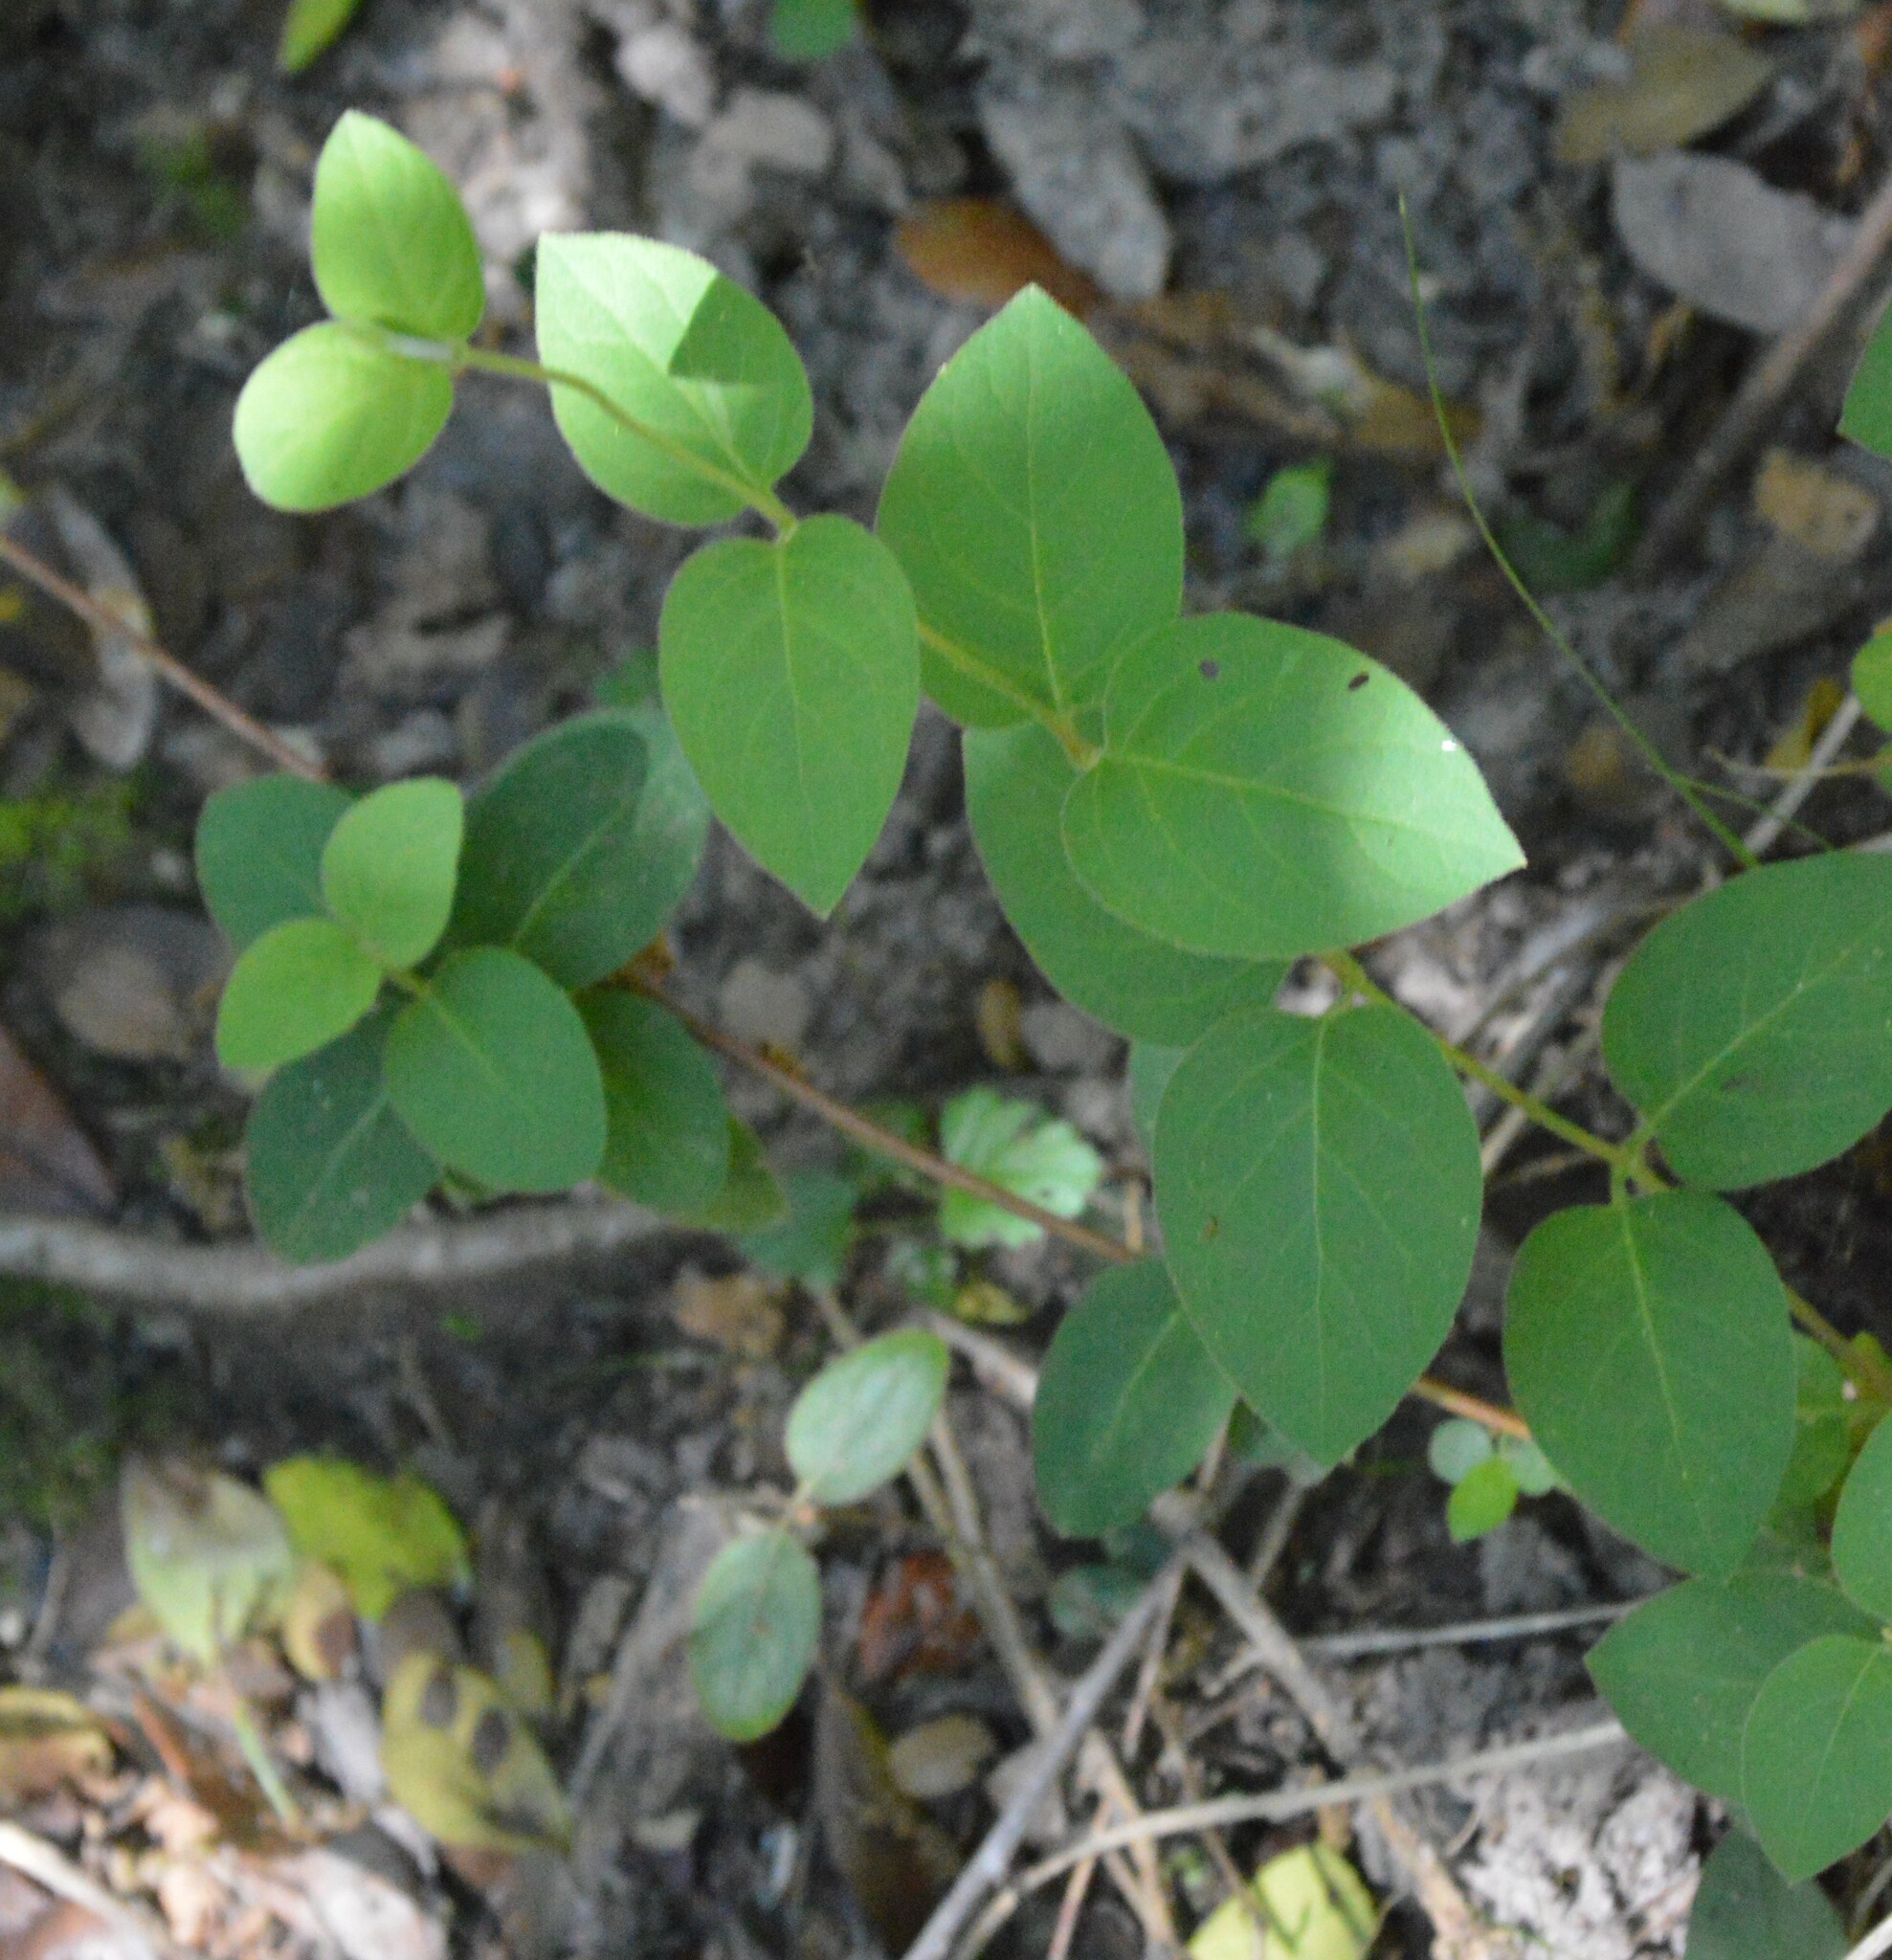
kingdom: Plantae
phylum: Tracheophyta
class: Magnoliopsida
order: Dipsacales
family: Caprifoliaceae
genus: Lonicera
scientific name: Lonicera japonica
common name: Japanese honeysuckle
